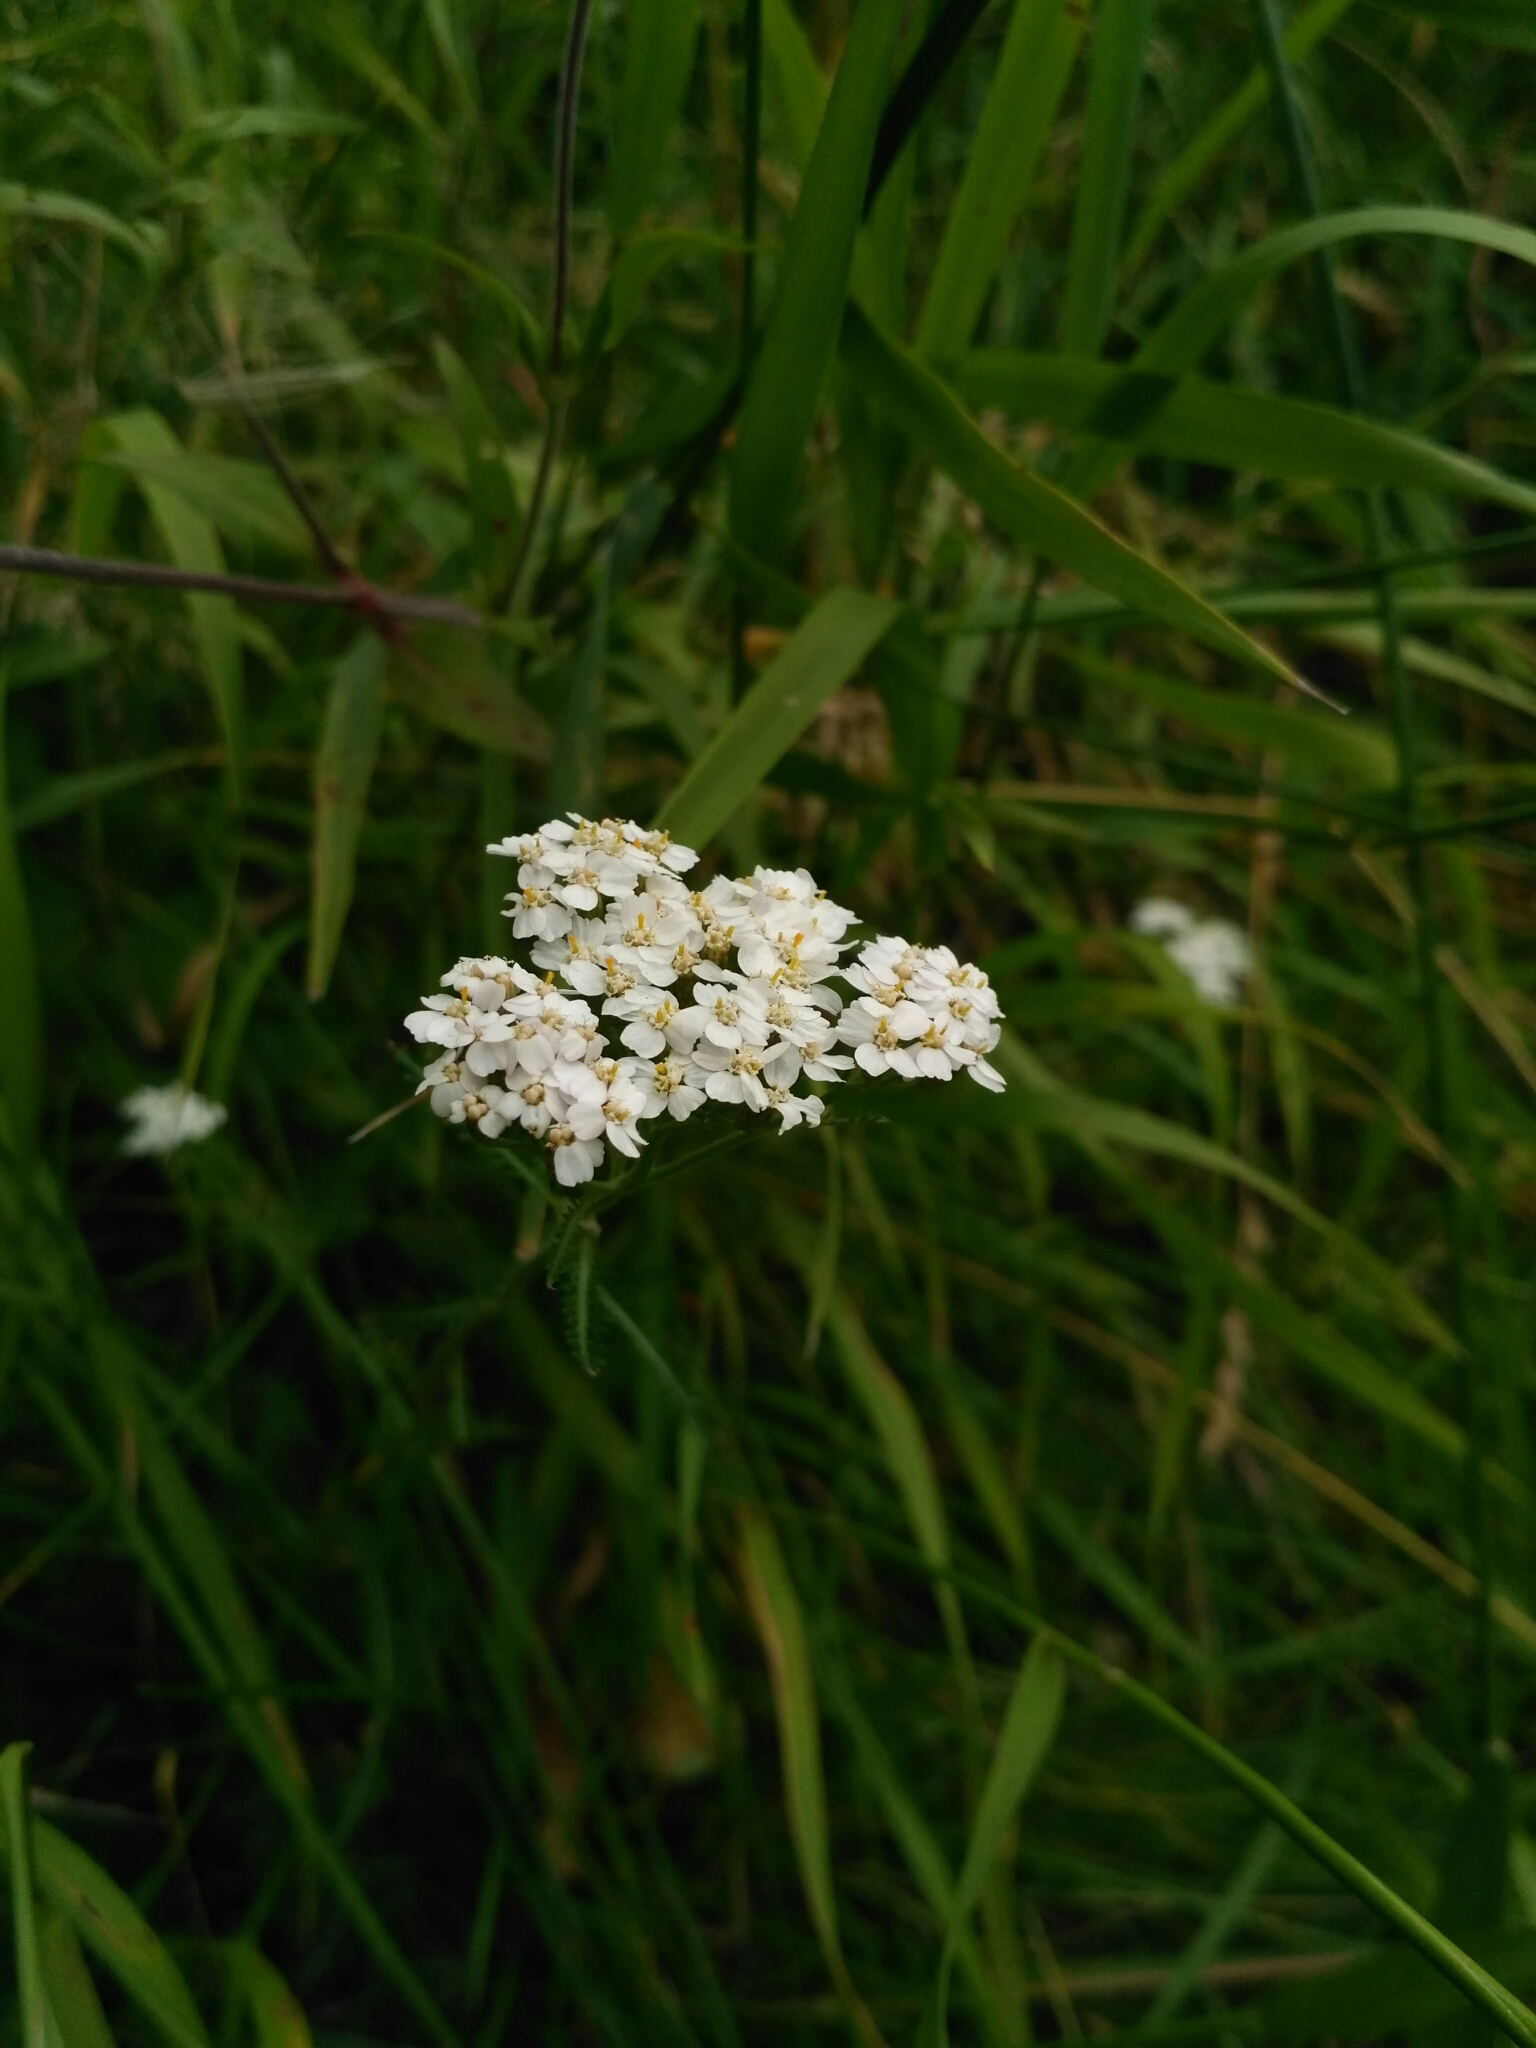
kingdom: Plantae
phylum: Tracheophyta
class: Magnoliopsida
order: Asterales
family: Asteraceae
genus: Achillea
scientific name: Achillea millefolium
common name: Yarrow
